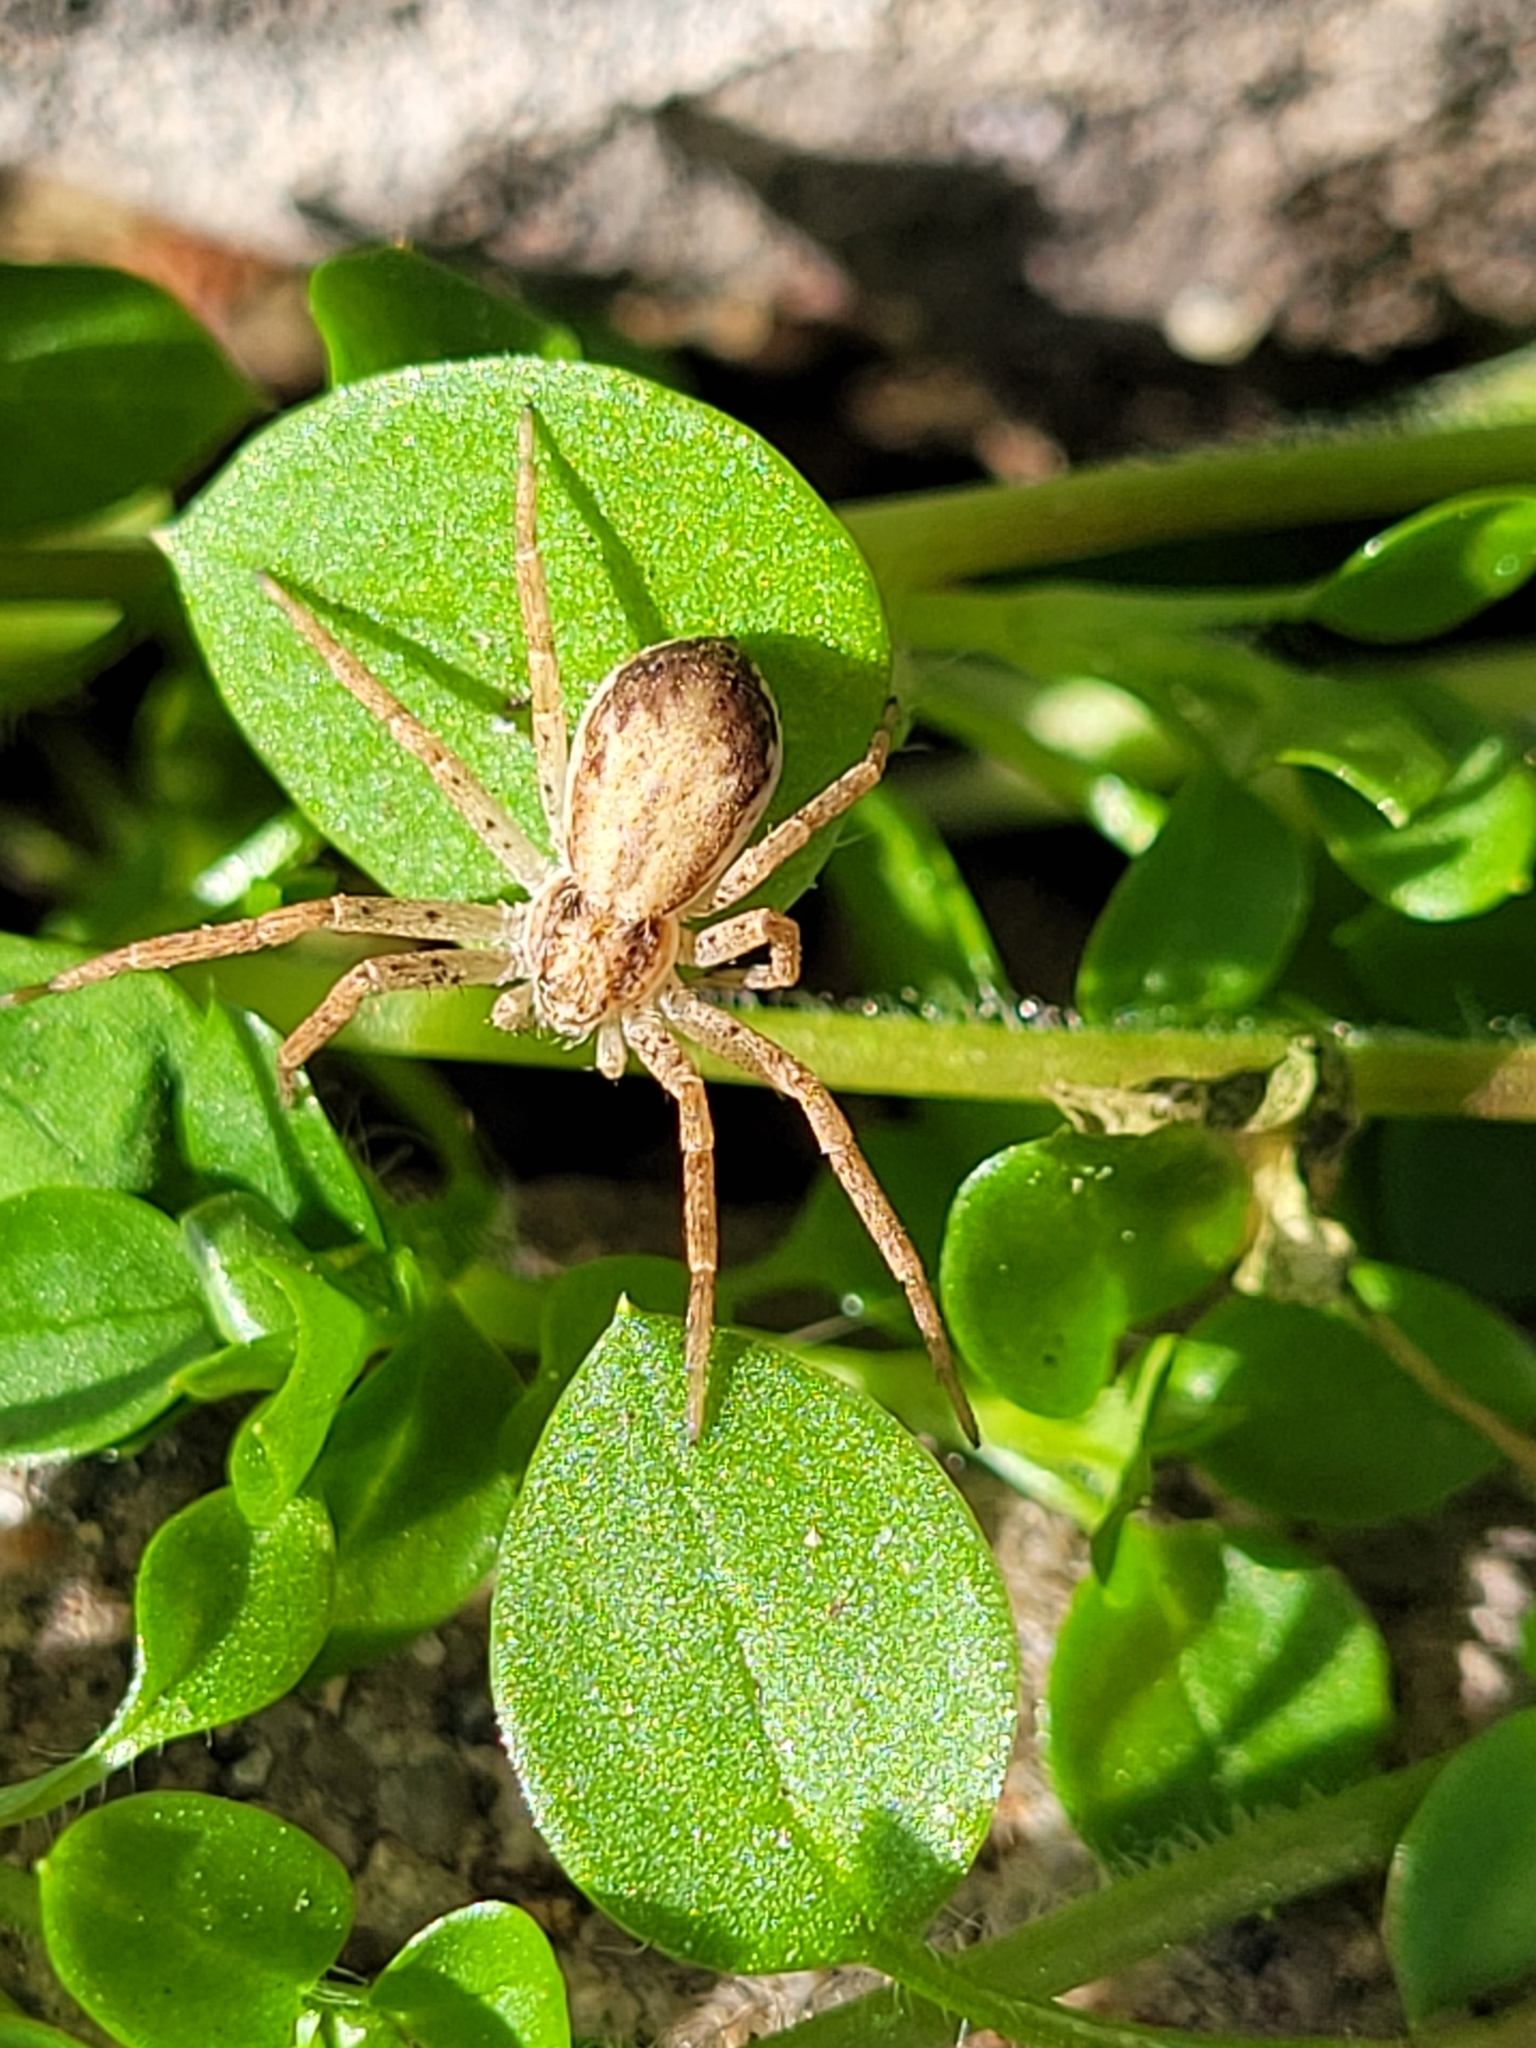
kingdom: Animalia
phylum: Arthropoda
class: Arachnida
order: Araneae
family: Philodromidae
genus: Philodromus
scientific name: Philodromus dispar
